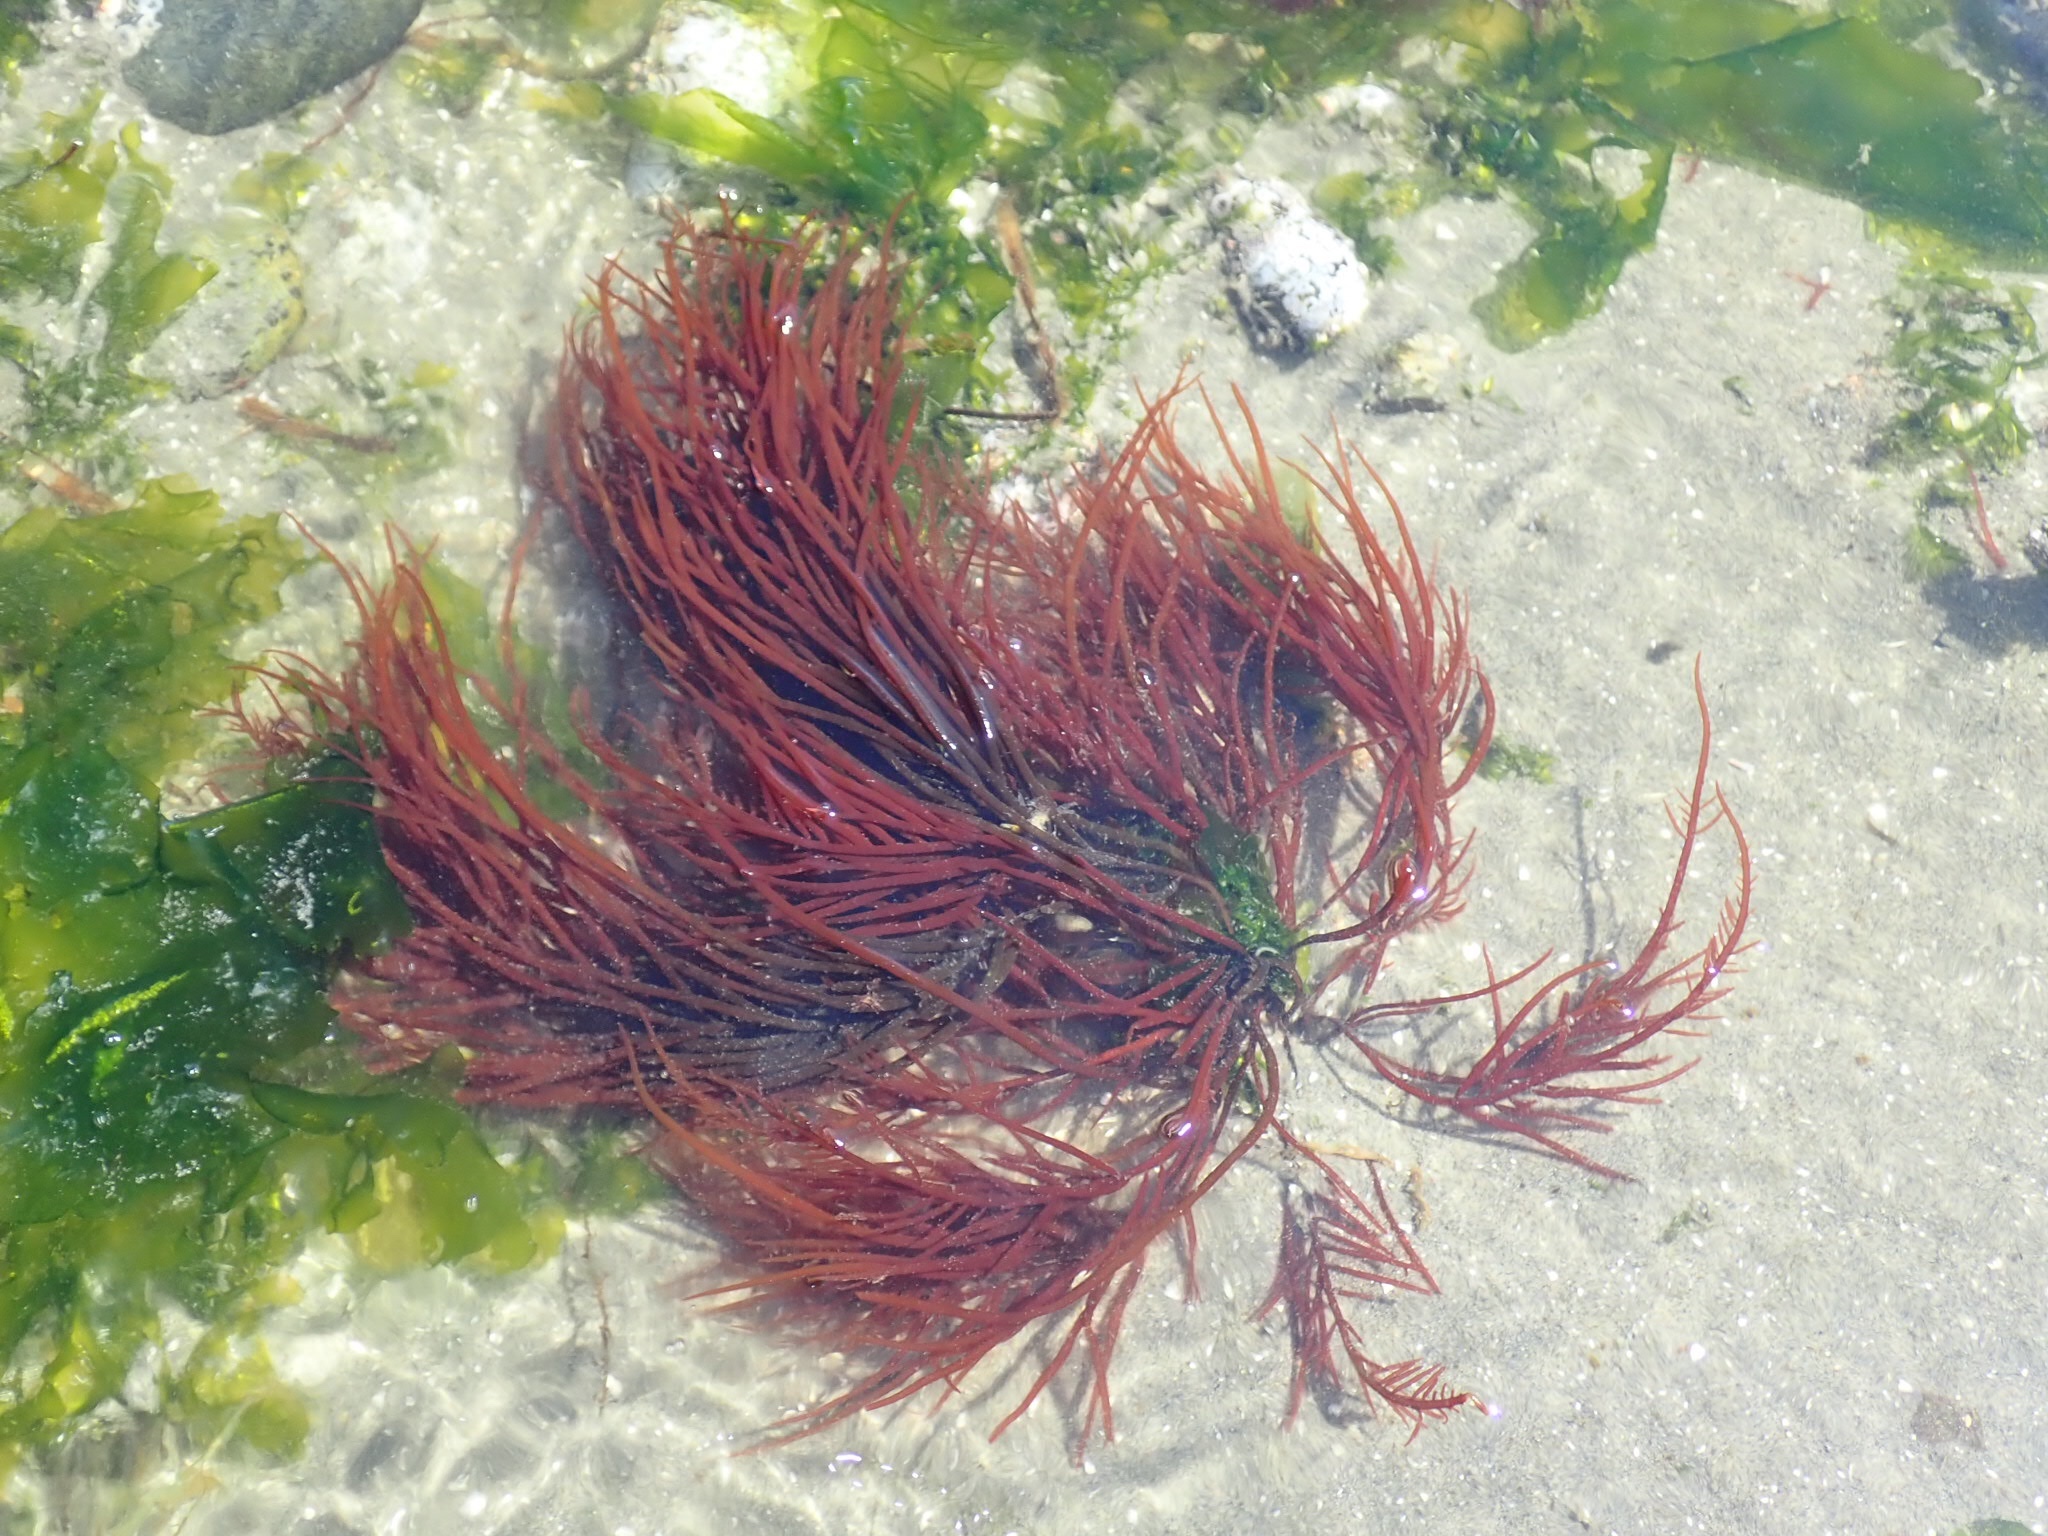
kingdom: Plantae
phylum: Rhodophyta
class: Florideophyceae
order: Gigartinales
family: Solieriaceae
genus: Sarcodiotheca
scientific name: Sarcodiotheca gaudichaudii
